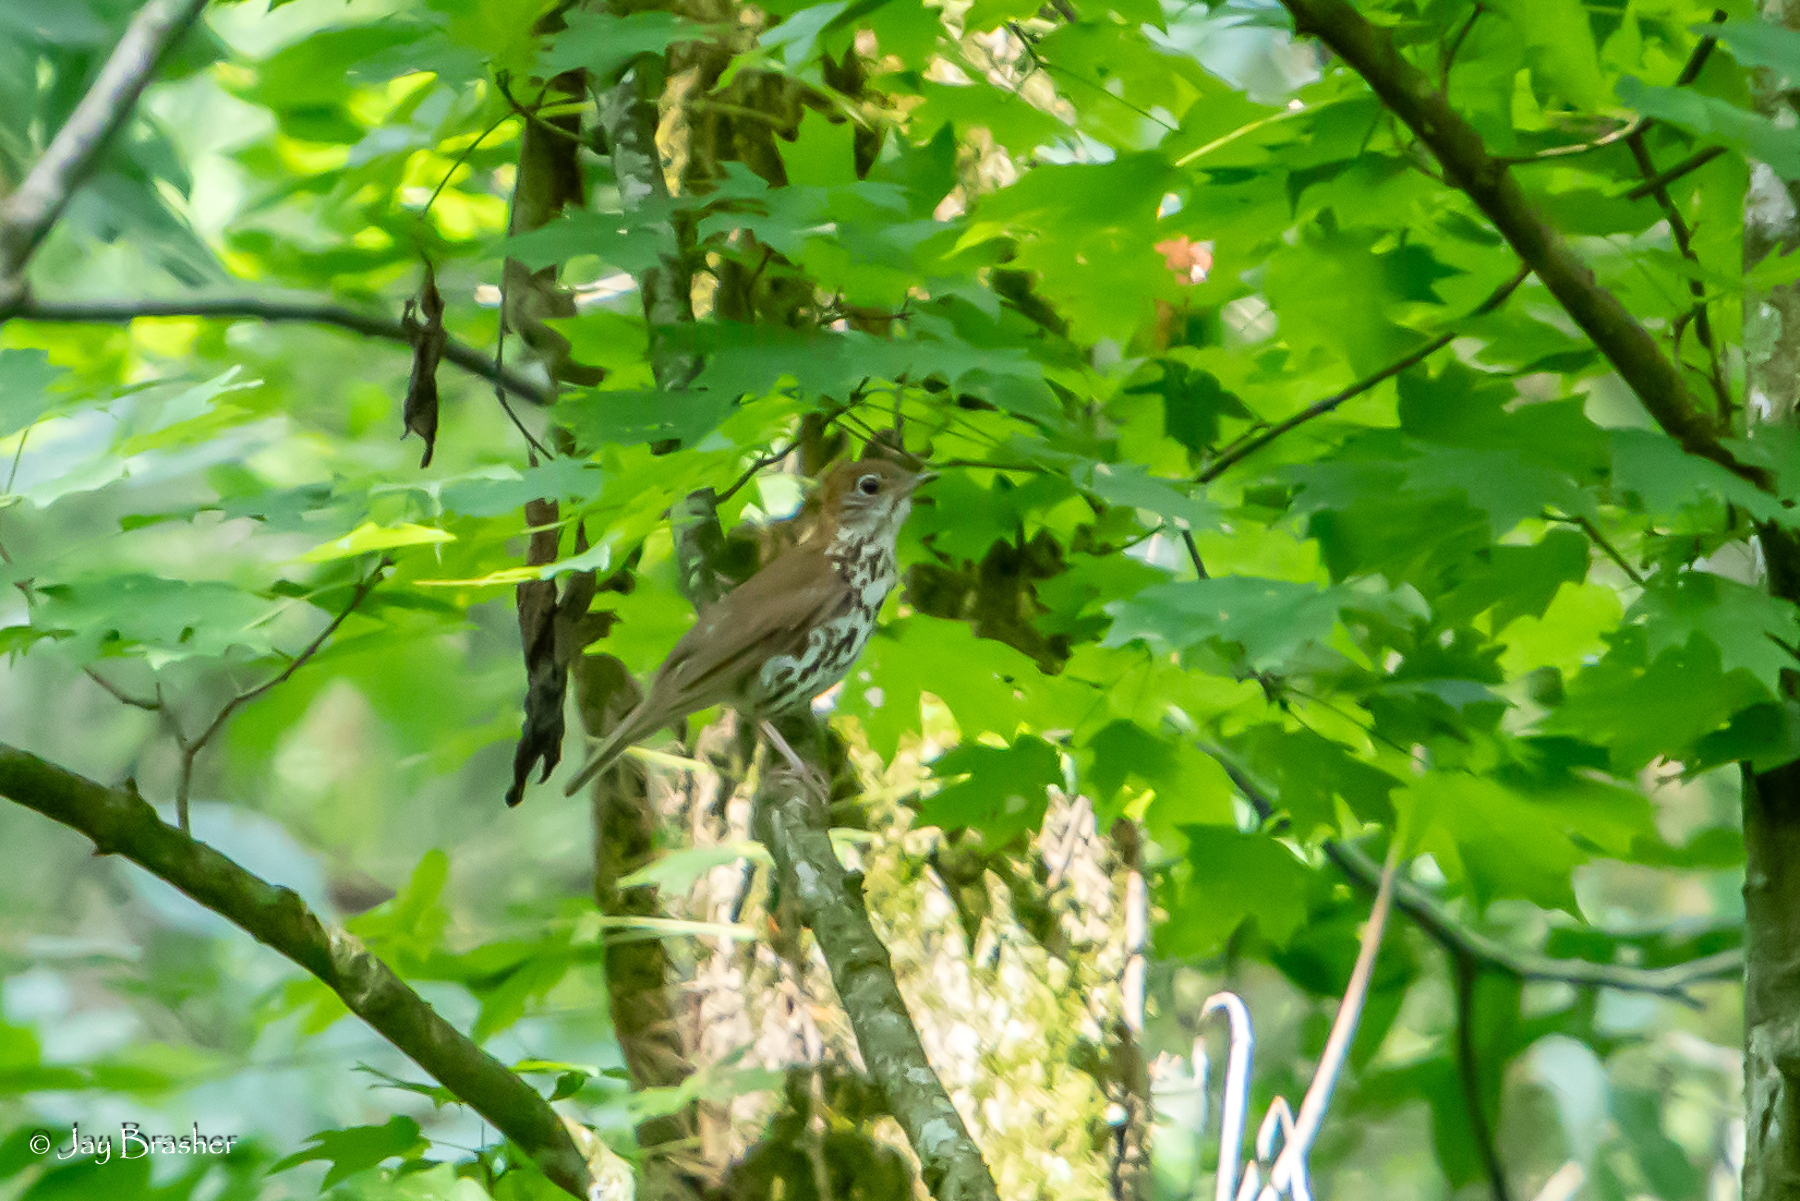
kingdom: Animalia
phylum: Chordata
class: Aves
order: Passeriformes
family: Turdidae
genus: Hylocichla
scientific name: Hylocichla mustelina
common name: Wood thrush
